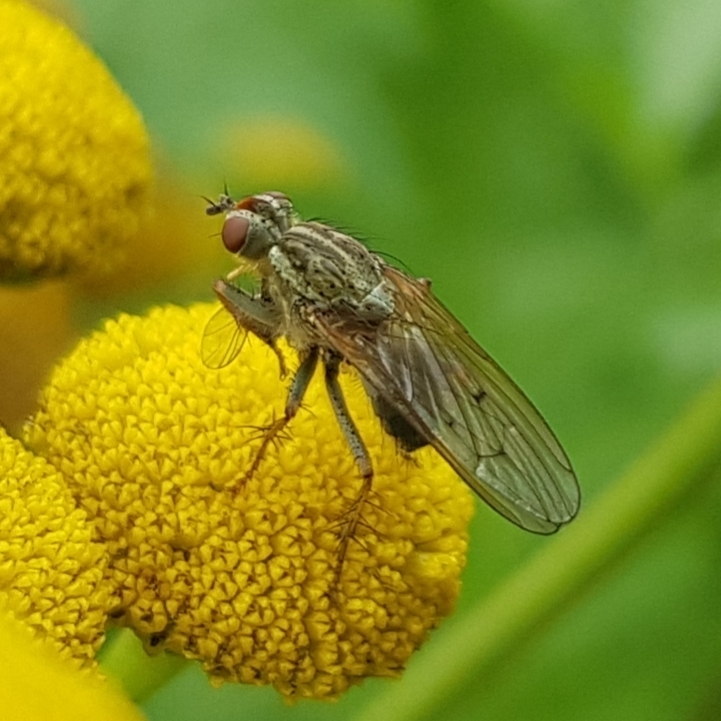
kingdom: Animalia
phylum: Arthropoda
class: Insecta
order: Diptera
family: Scathophagidae
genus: Scathophaga
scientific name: Scathophaga stercoraria
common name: Yellow dung fly
